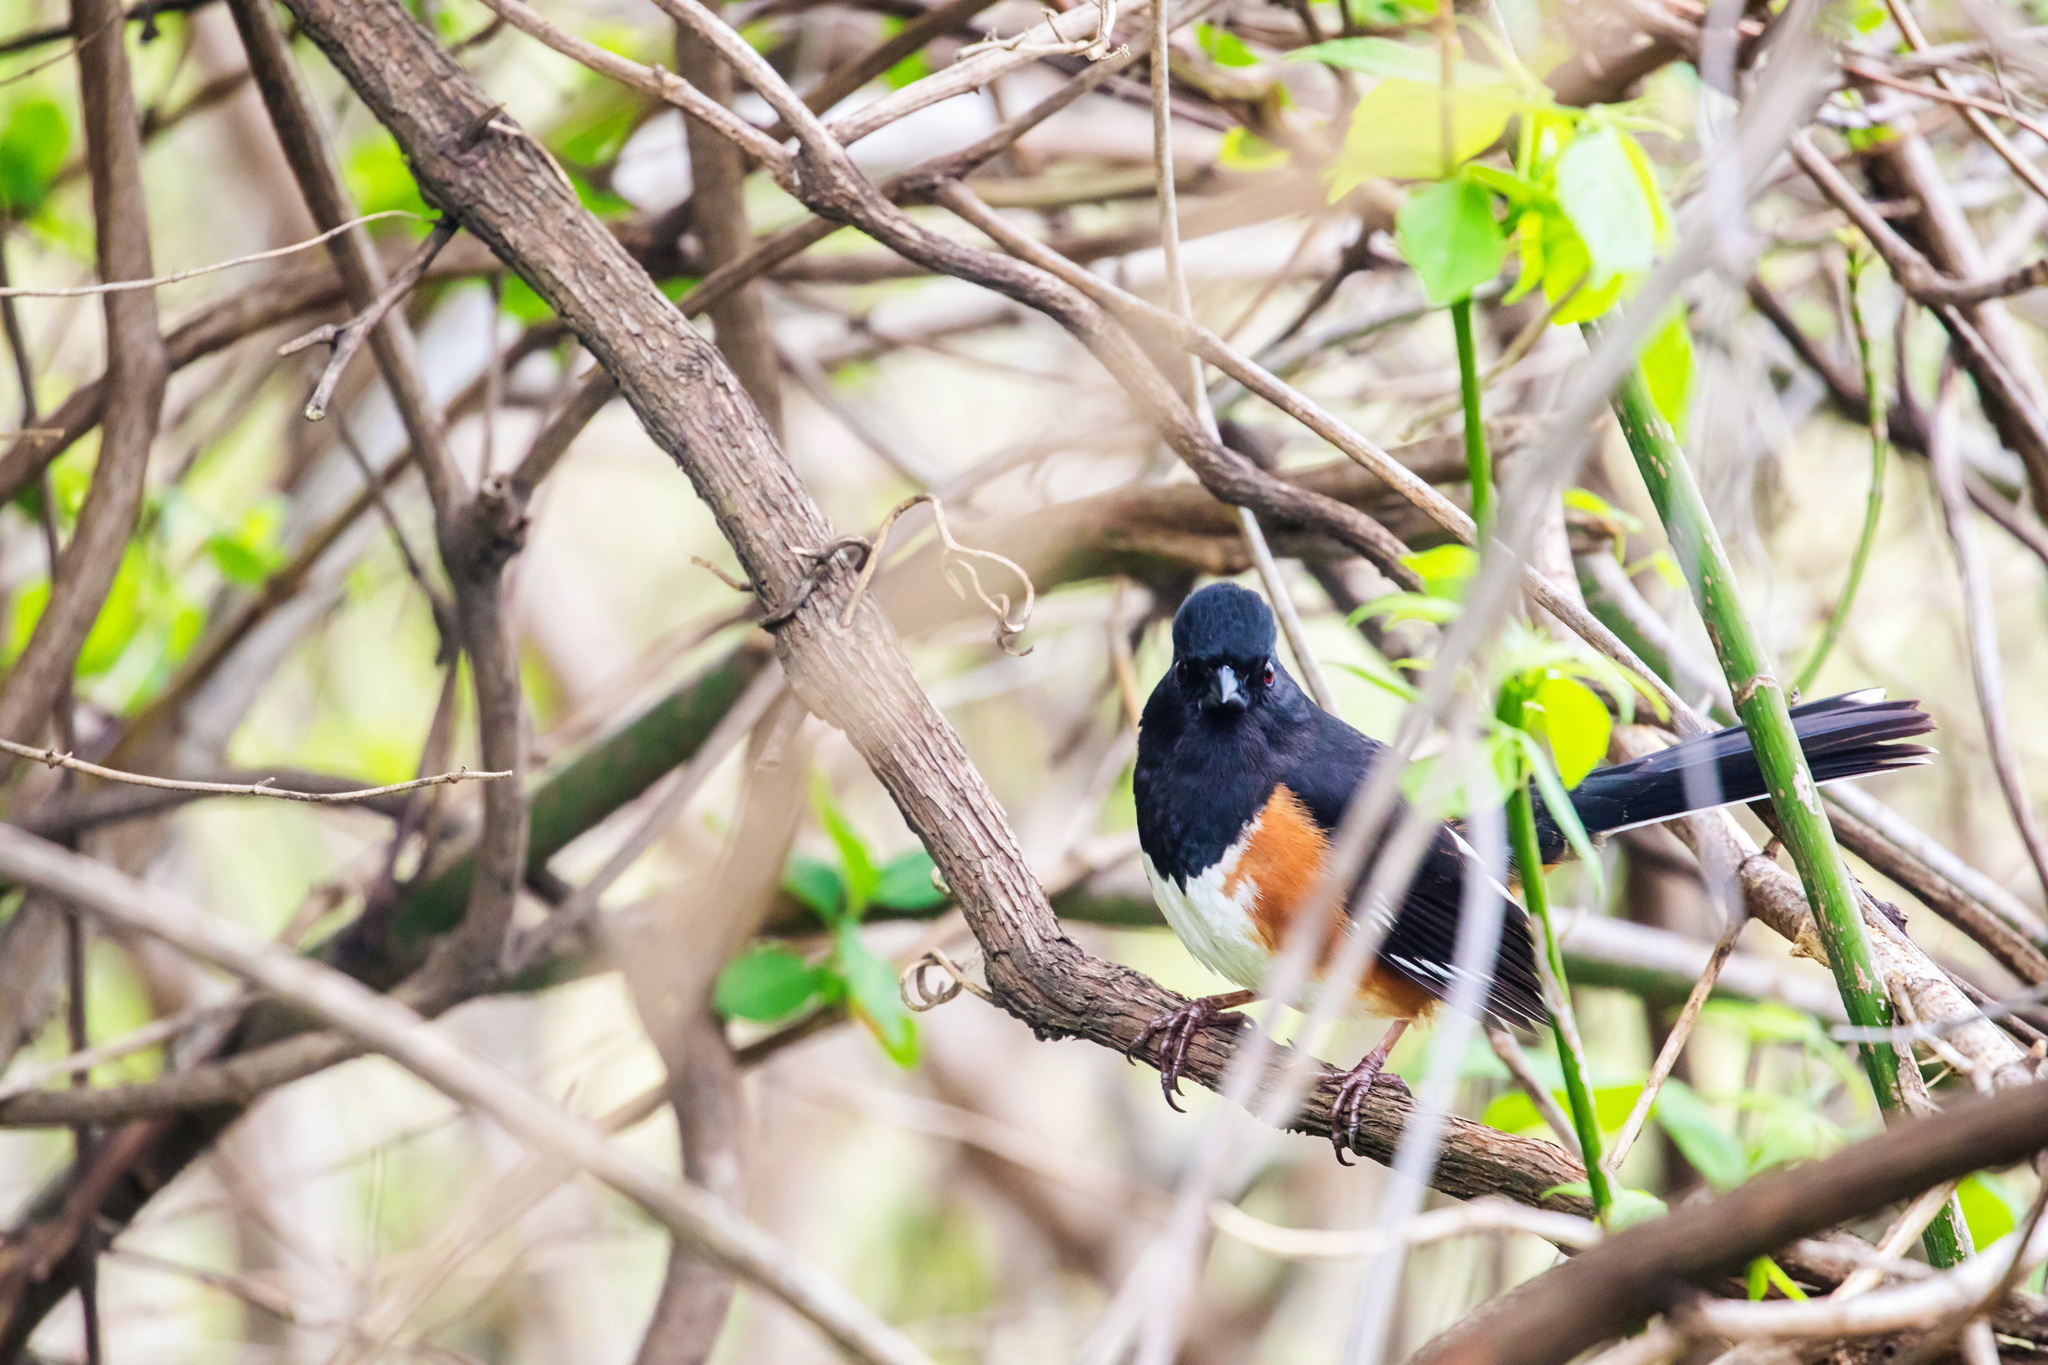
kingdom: Animalia
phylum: Chordata
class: Aves
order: Passeriformes
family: Passerellidae
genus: Pipilo
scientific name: Pipilo erythrophthalmus
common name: Eastern towhee
